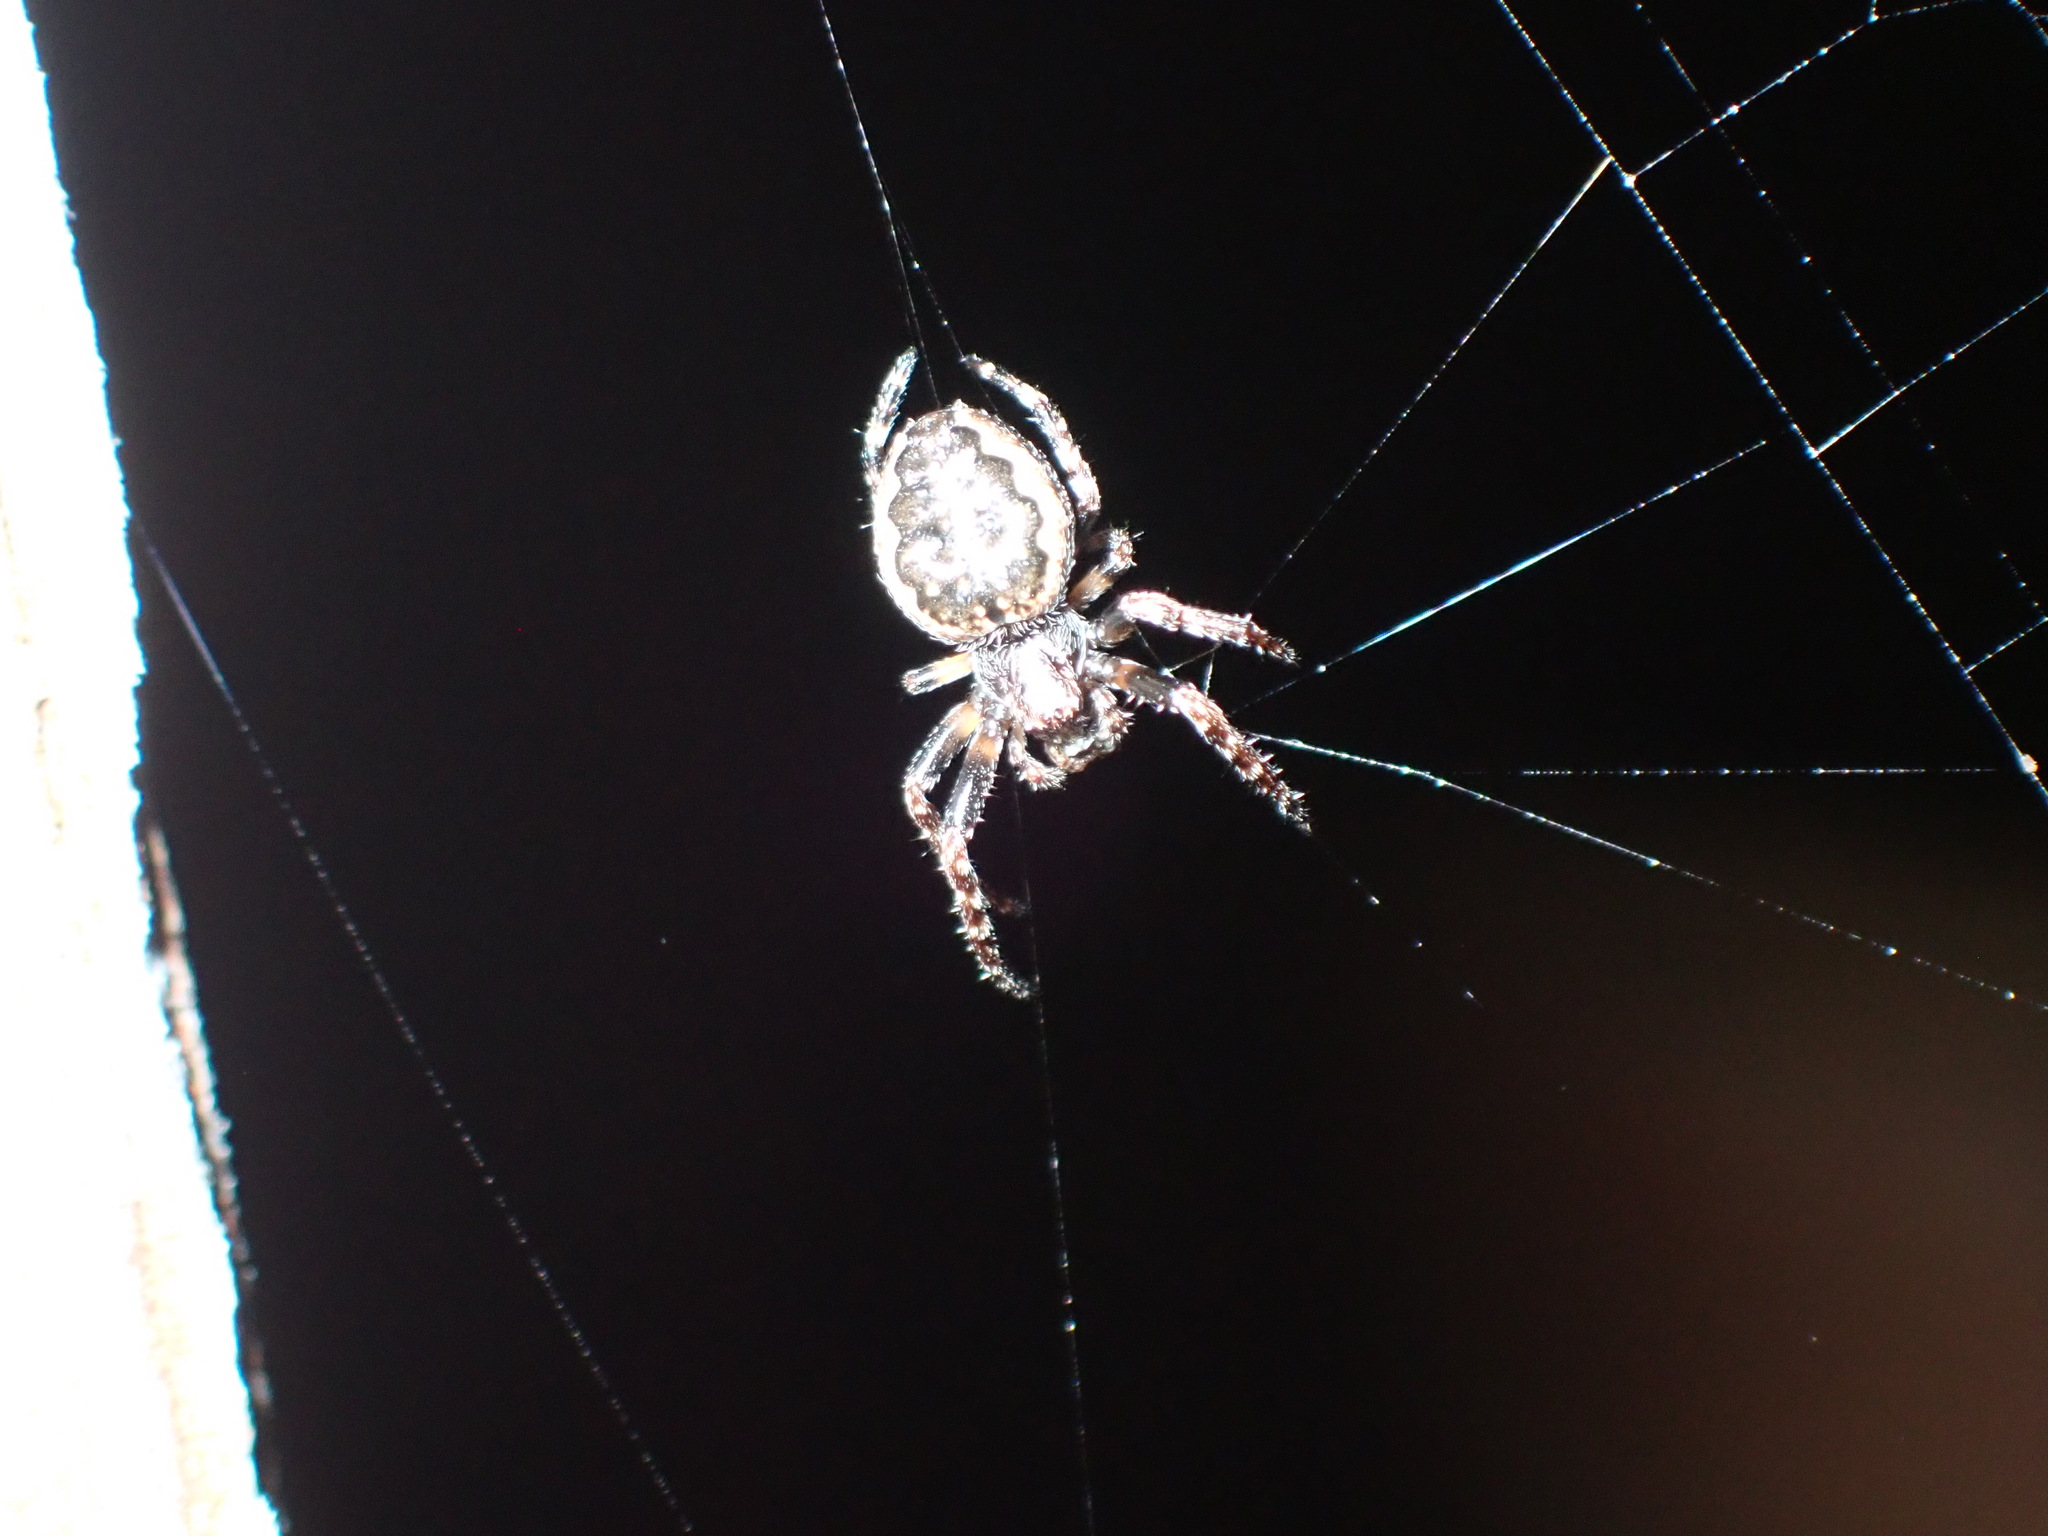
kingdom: Animalia
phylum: Arthropoda
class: Arachnida
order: Araneae
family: Araneidae
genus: Nuctenea
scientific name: Nuctenea umbratica
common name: Toad spider
